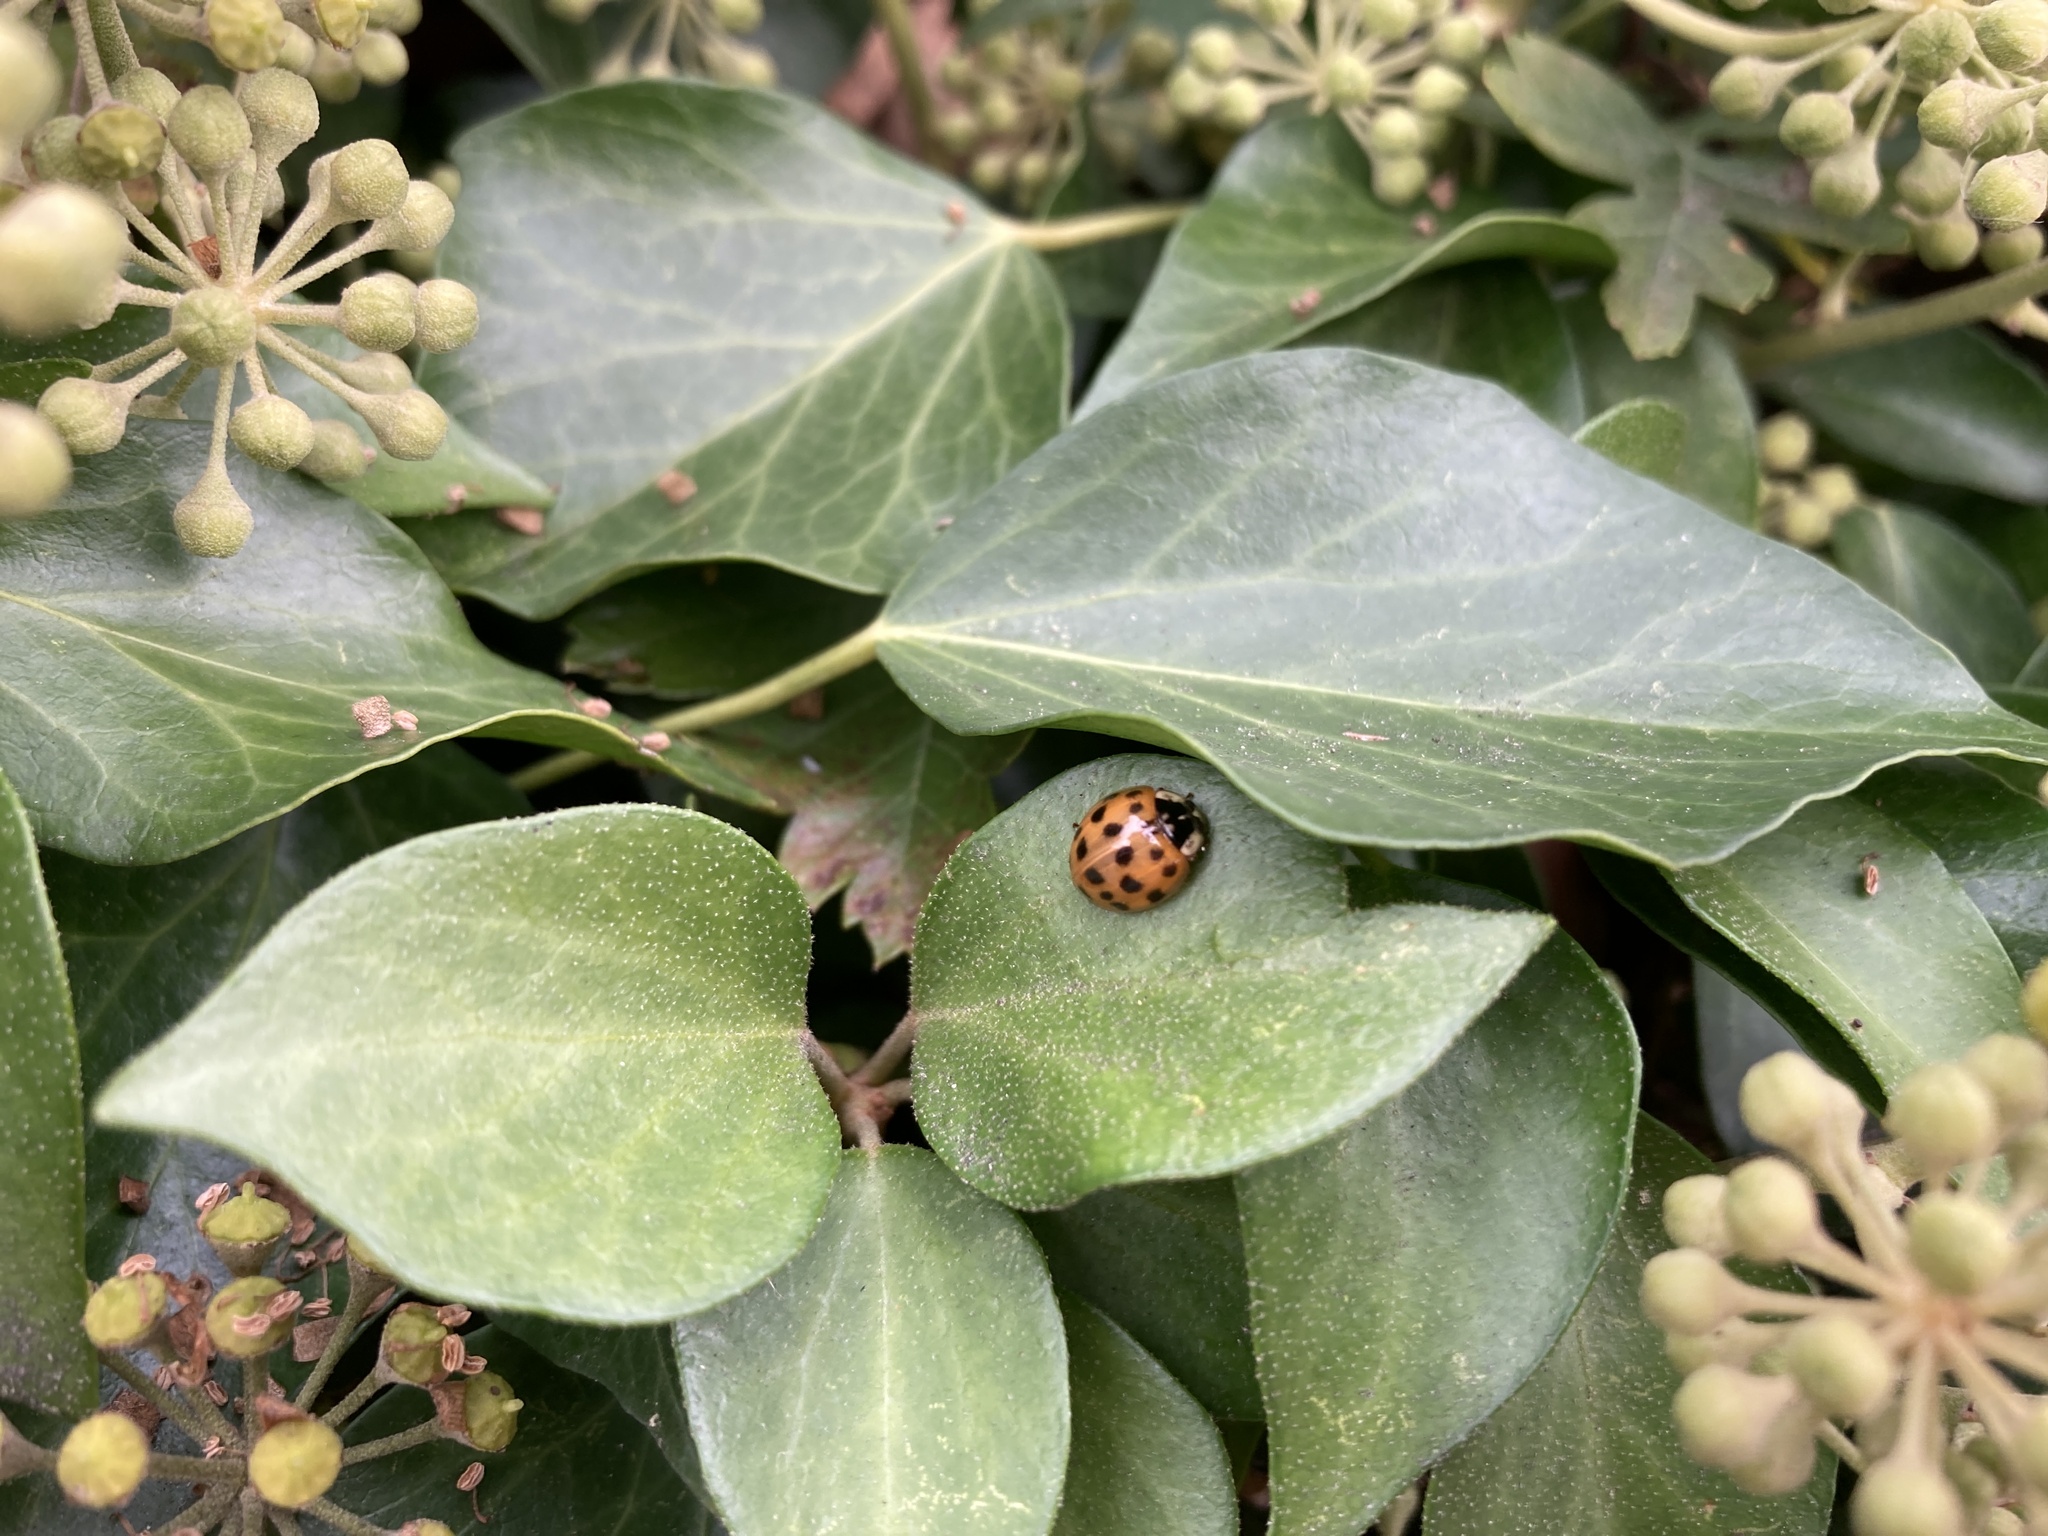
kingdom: Animalia
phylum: Arthropoda
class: Insecta
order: Coleoptera
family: Coccinellidae
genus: Harmonia
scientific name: Harmonia axyridis
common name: Harlequin ladybird
